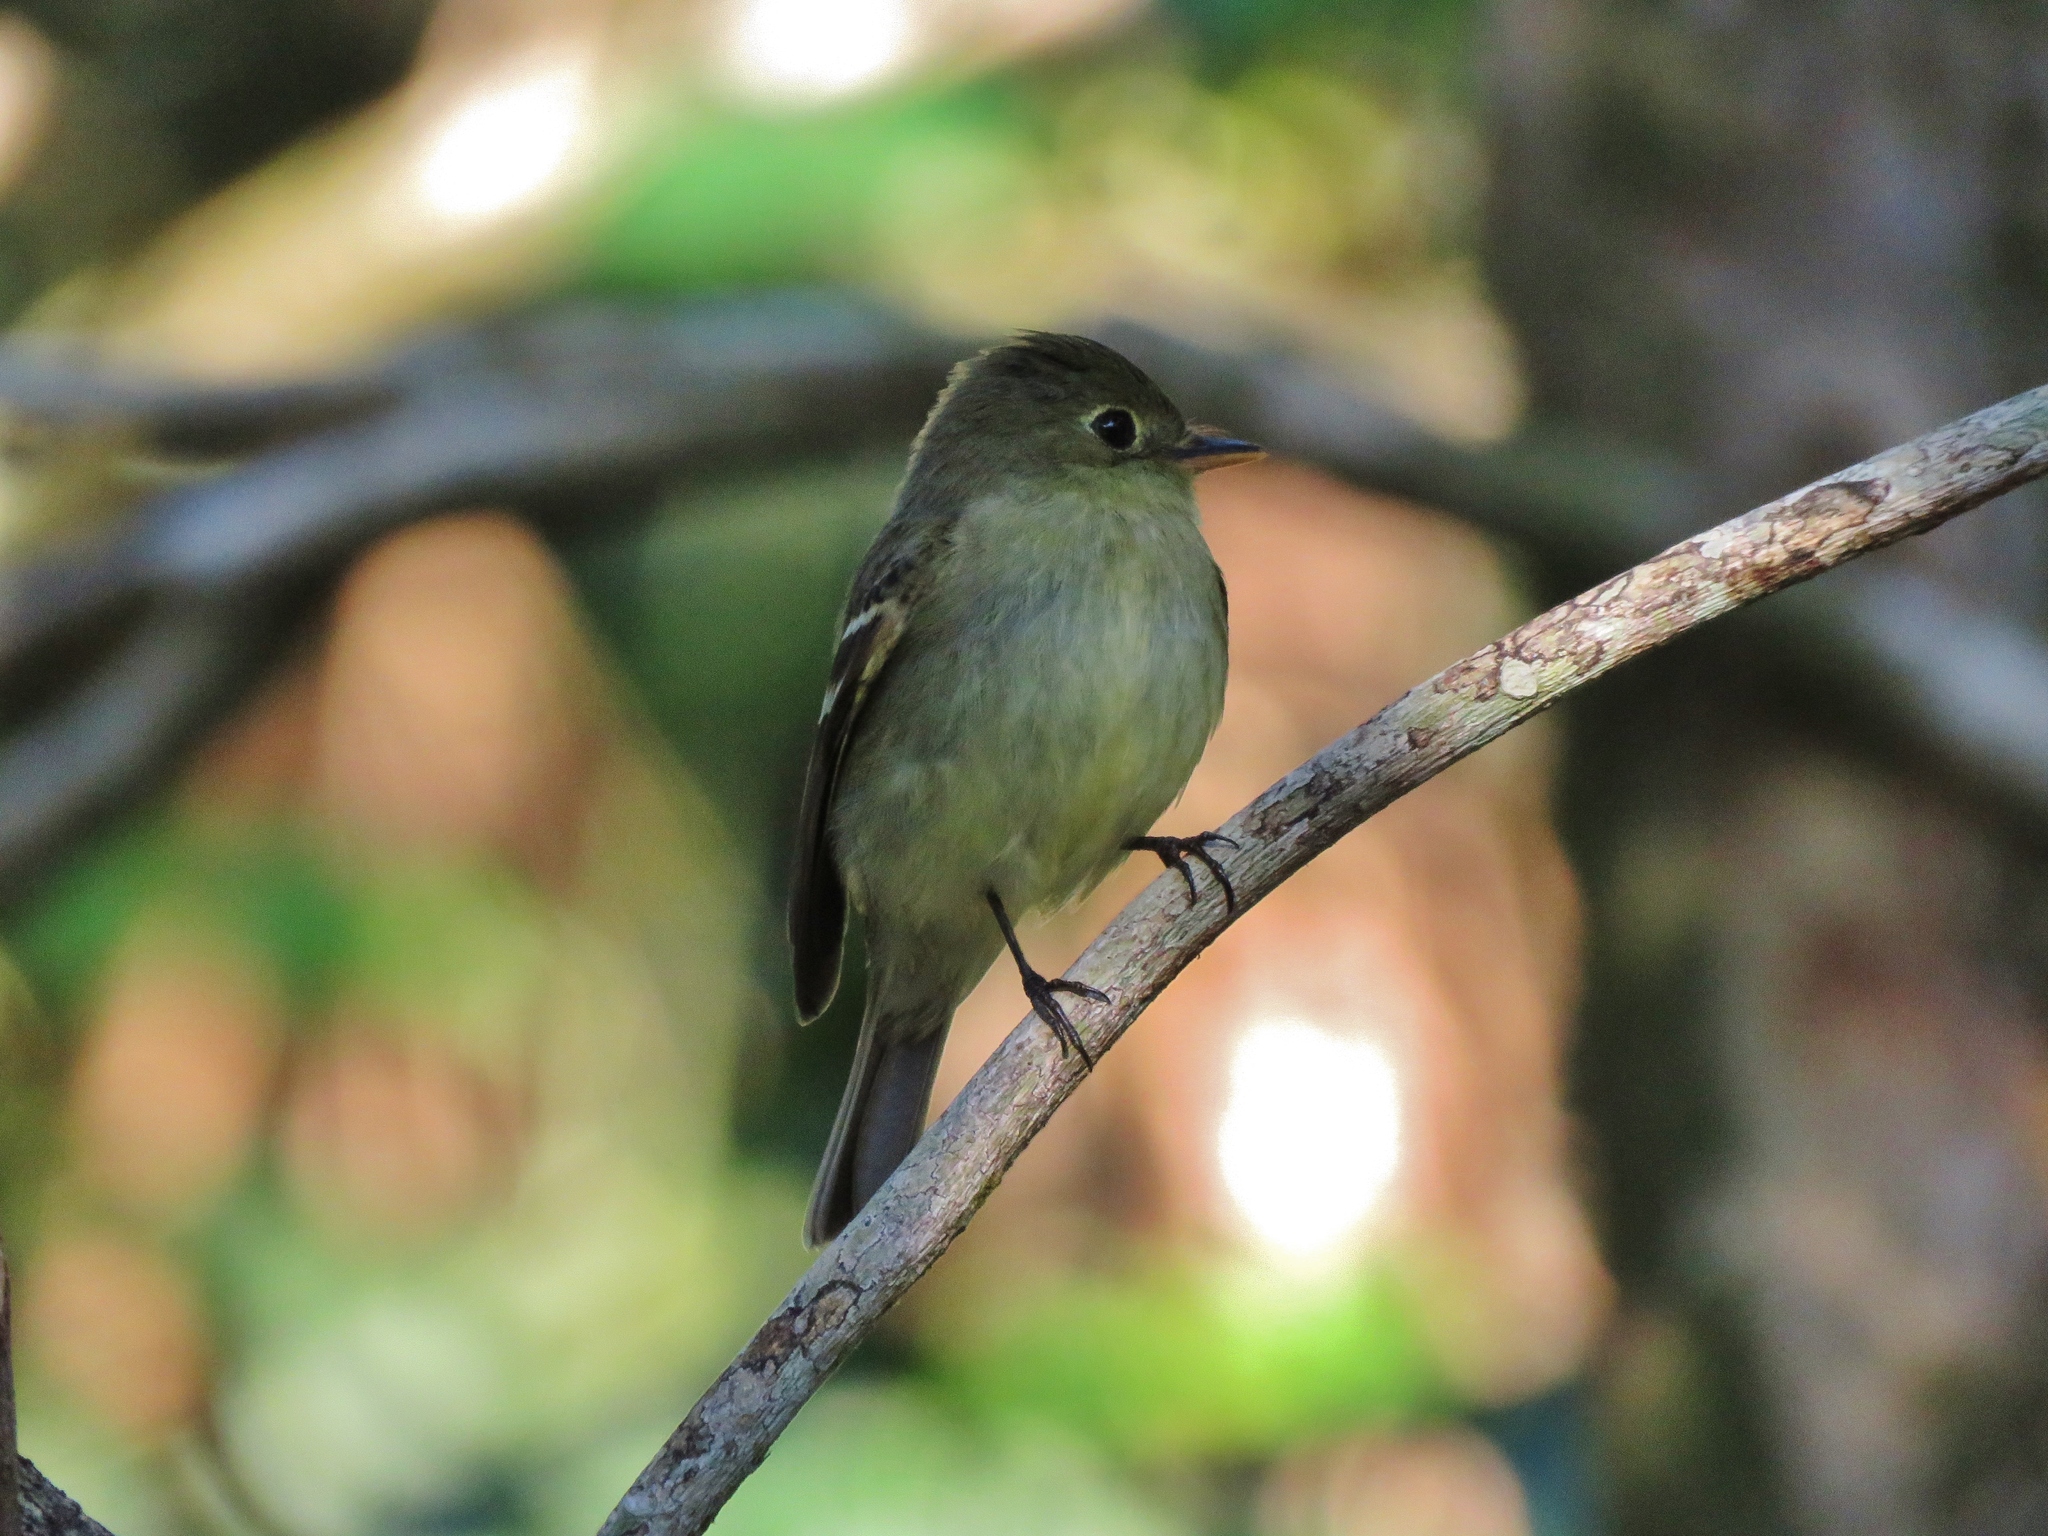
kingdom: Animalia
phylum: Chordata
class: Aves
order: Passeriformes
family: Tyrannidae
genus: Empidonax
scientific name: Empidonax flaviventris
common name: Yellow-bellied flycatcher
